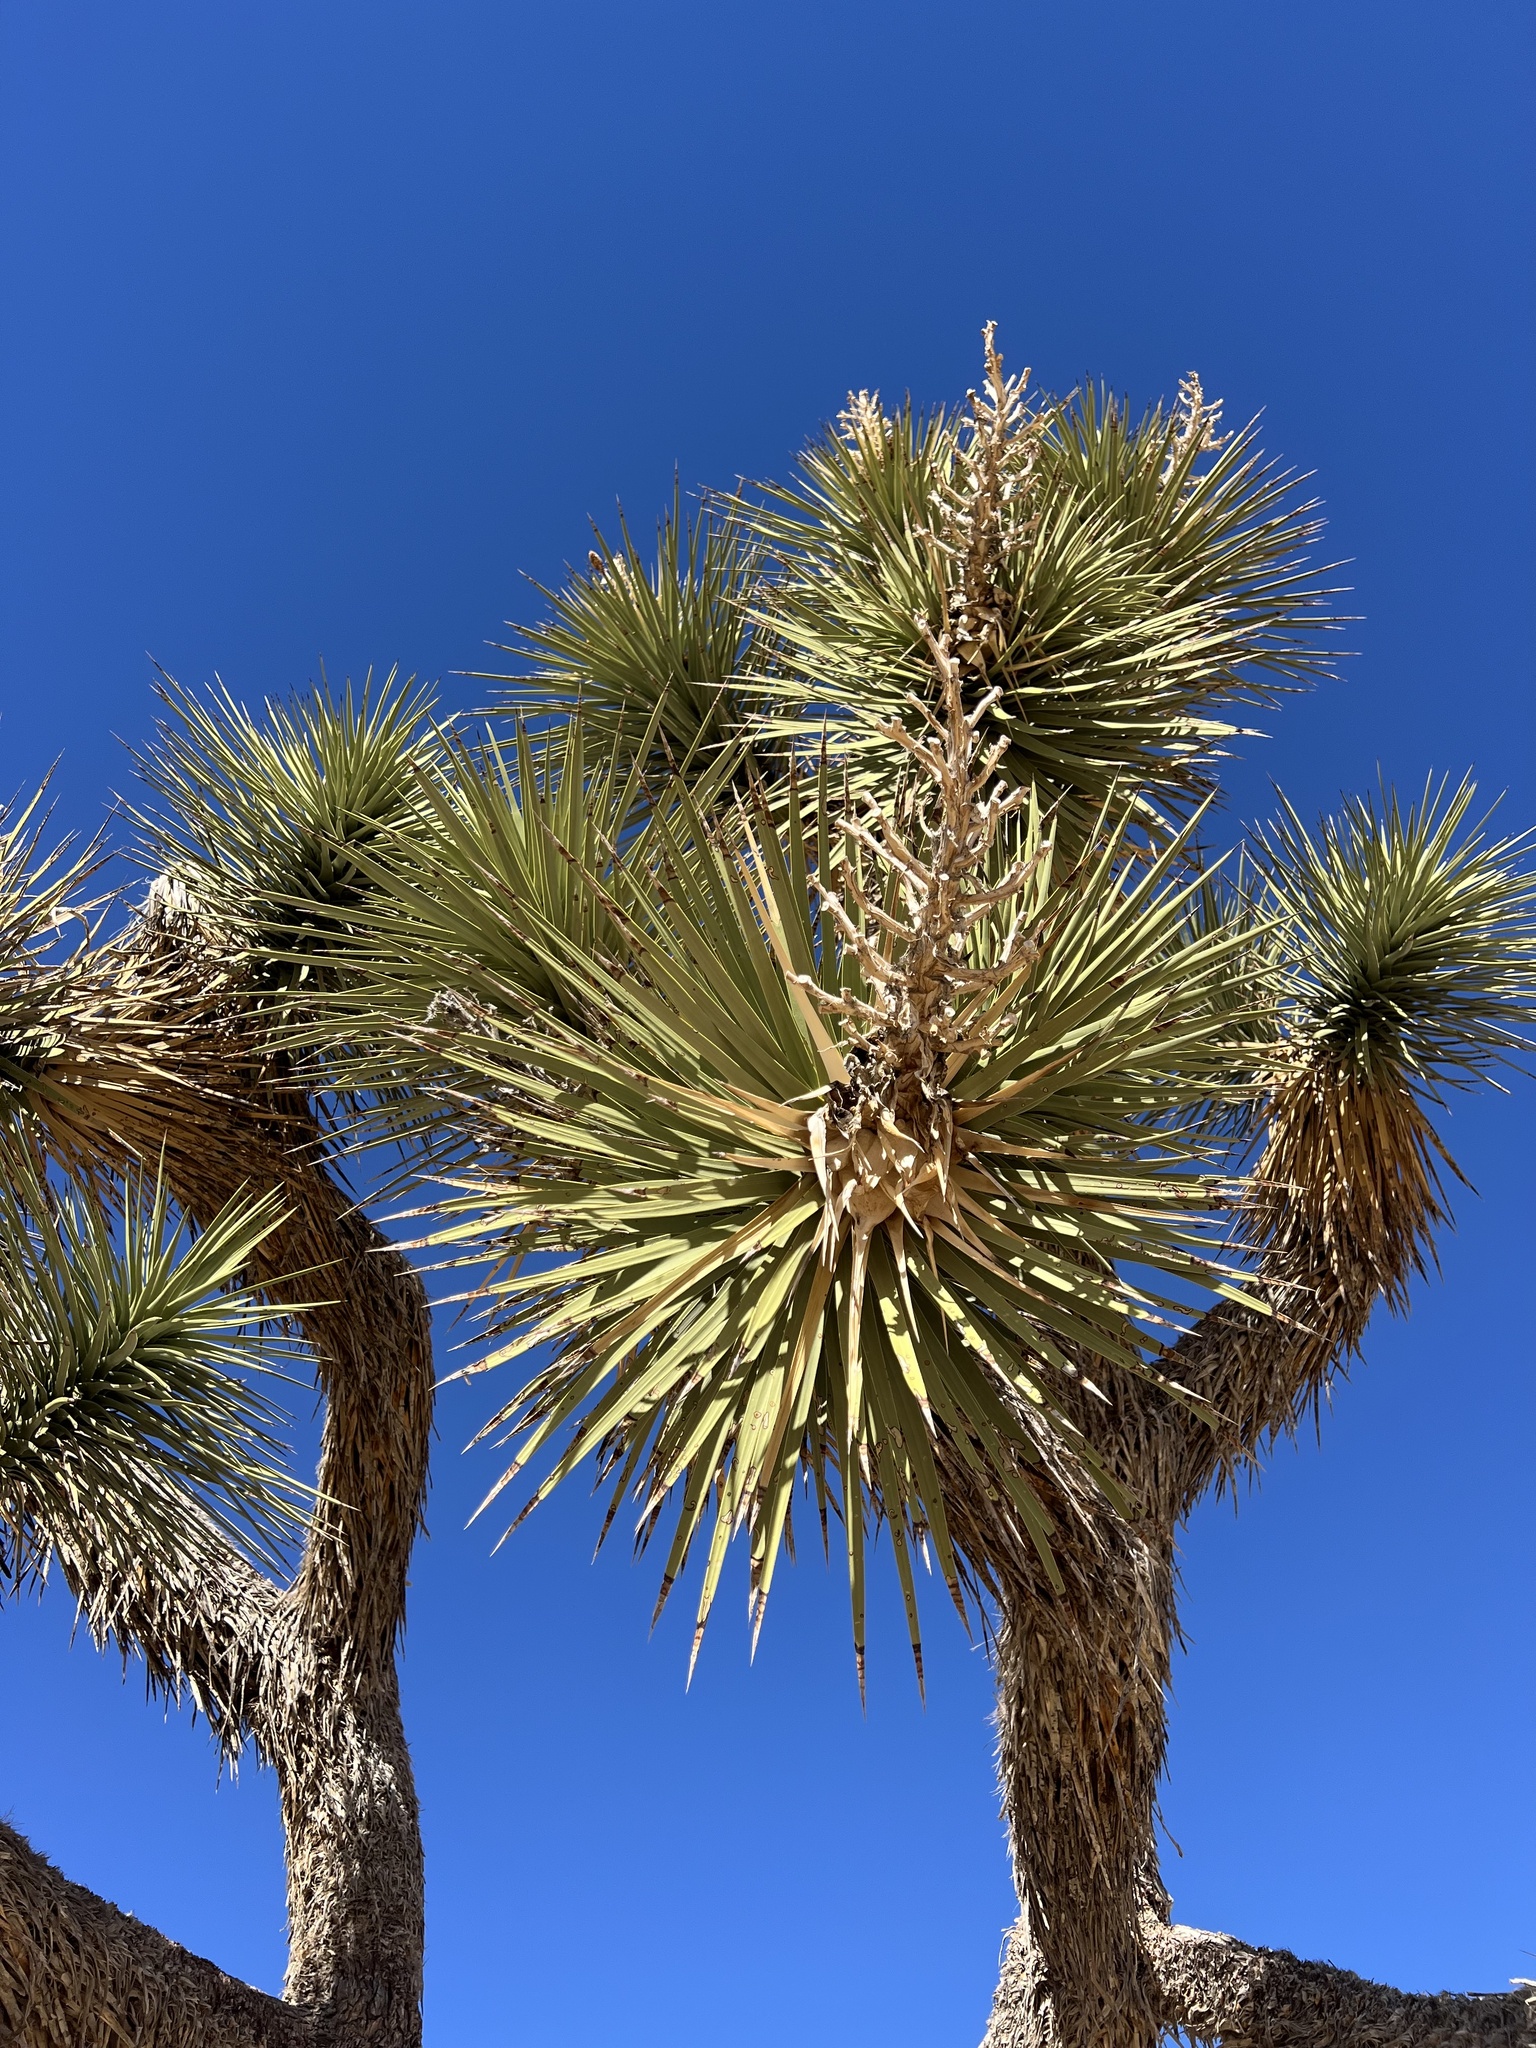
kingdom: Plantae
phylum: Tracheophyta
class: Liliopsida
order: Asparagales
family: Asparagaceae
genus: Yucca
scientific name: Yucca brevifolia
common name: Joshua tree
